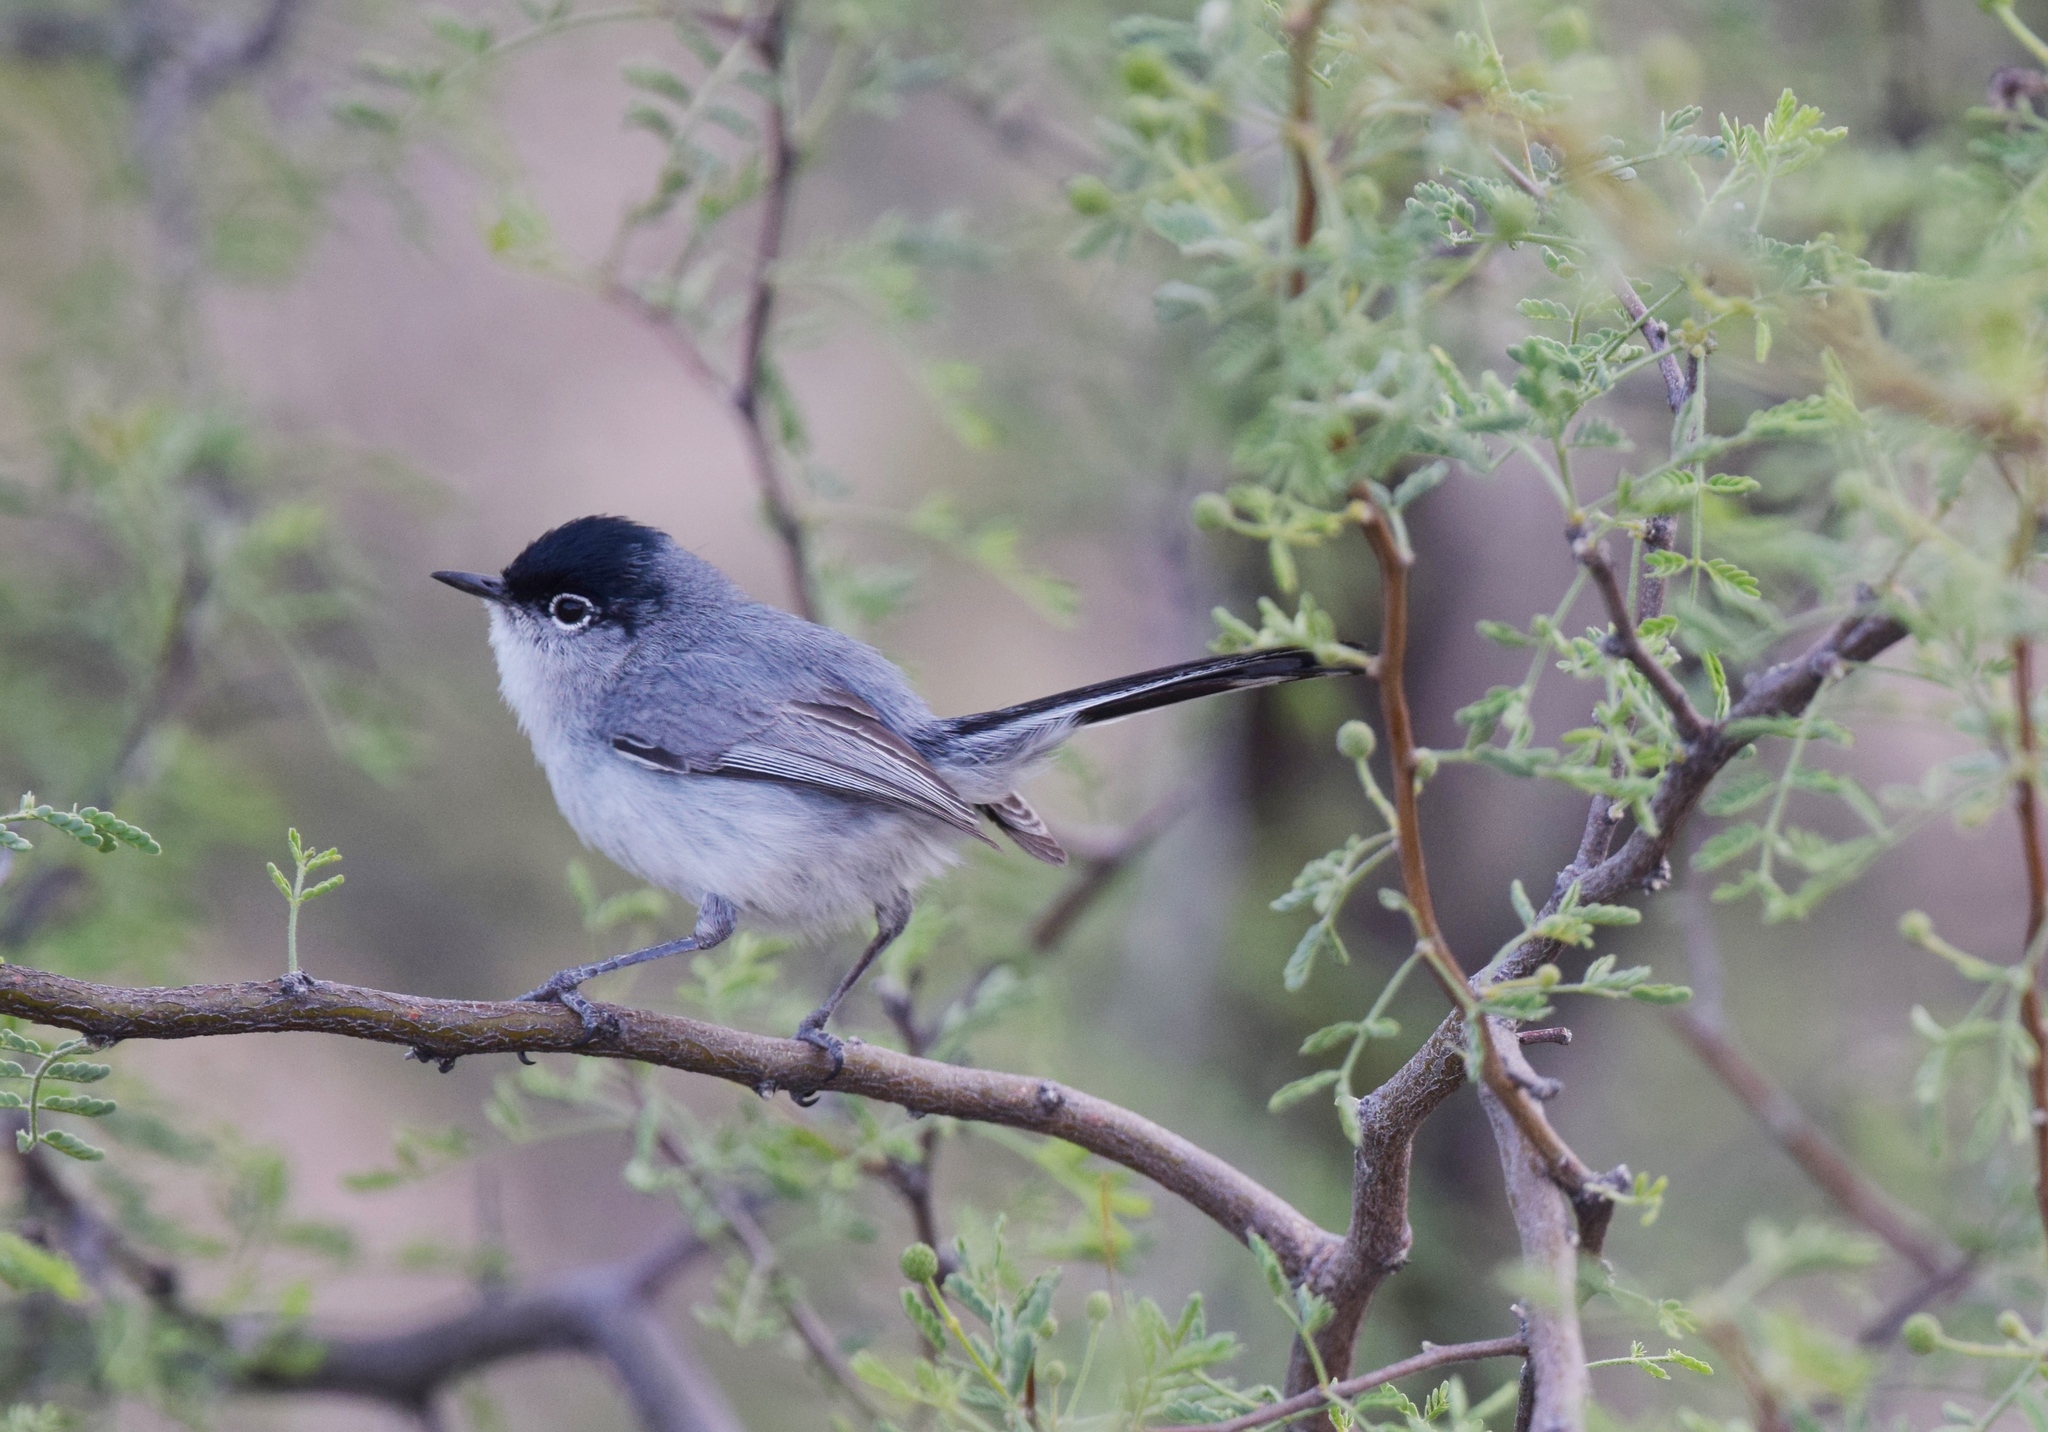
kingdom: Animalia
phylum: Chordata
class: Aves
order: Passeriformes
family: Polioptilidae
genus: Polioptila
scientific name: Polioptila melanura
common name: Black-tailed gnatcatcher
